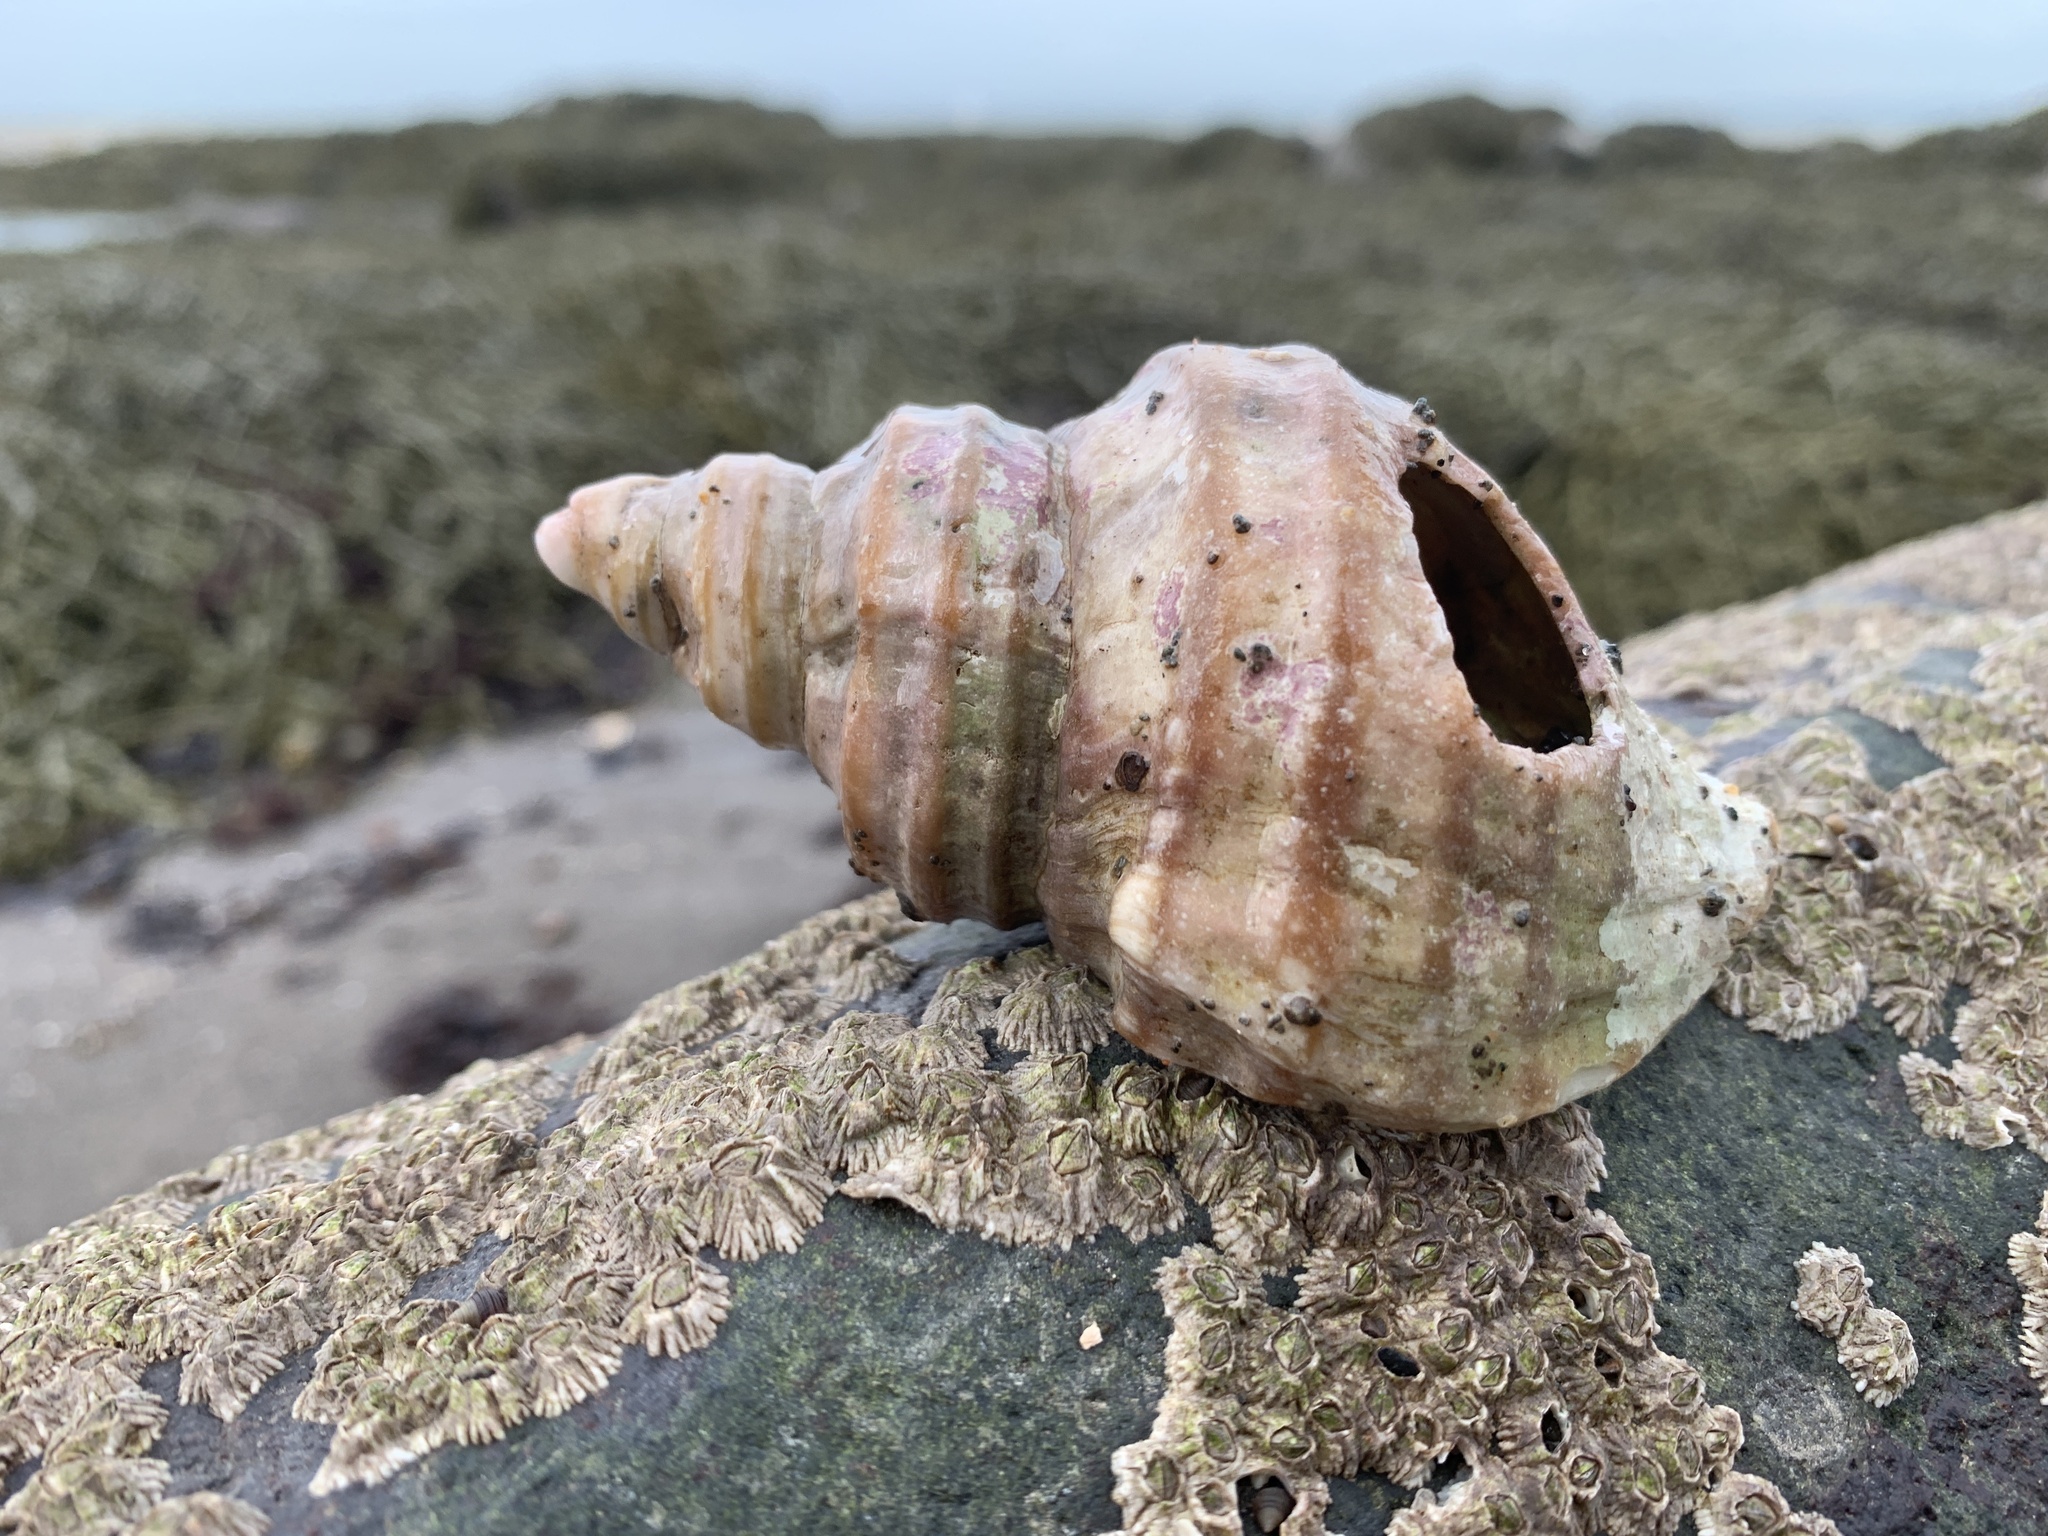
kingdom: Animalia
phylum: Mollusca
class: Gastropoda
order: Neogastropoda
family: Buccinidae
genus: Neptunea
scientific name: Neptunea decemcostata
